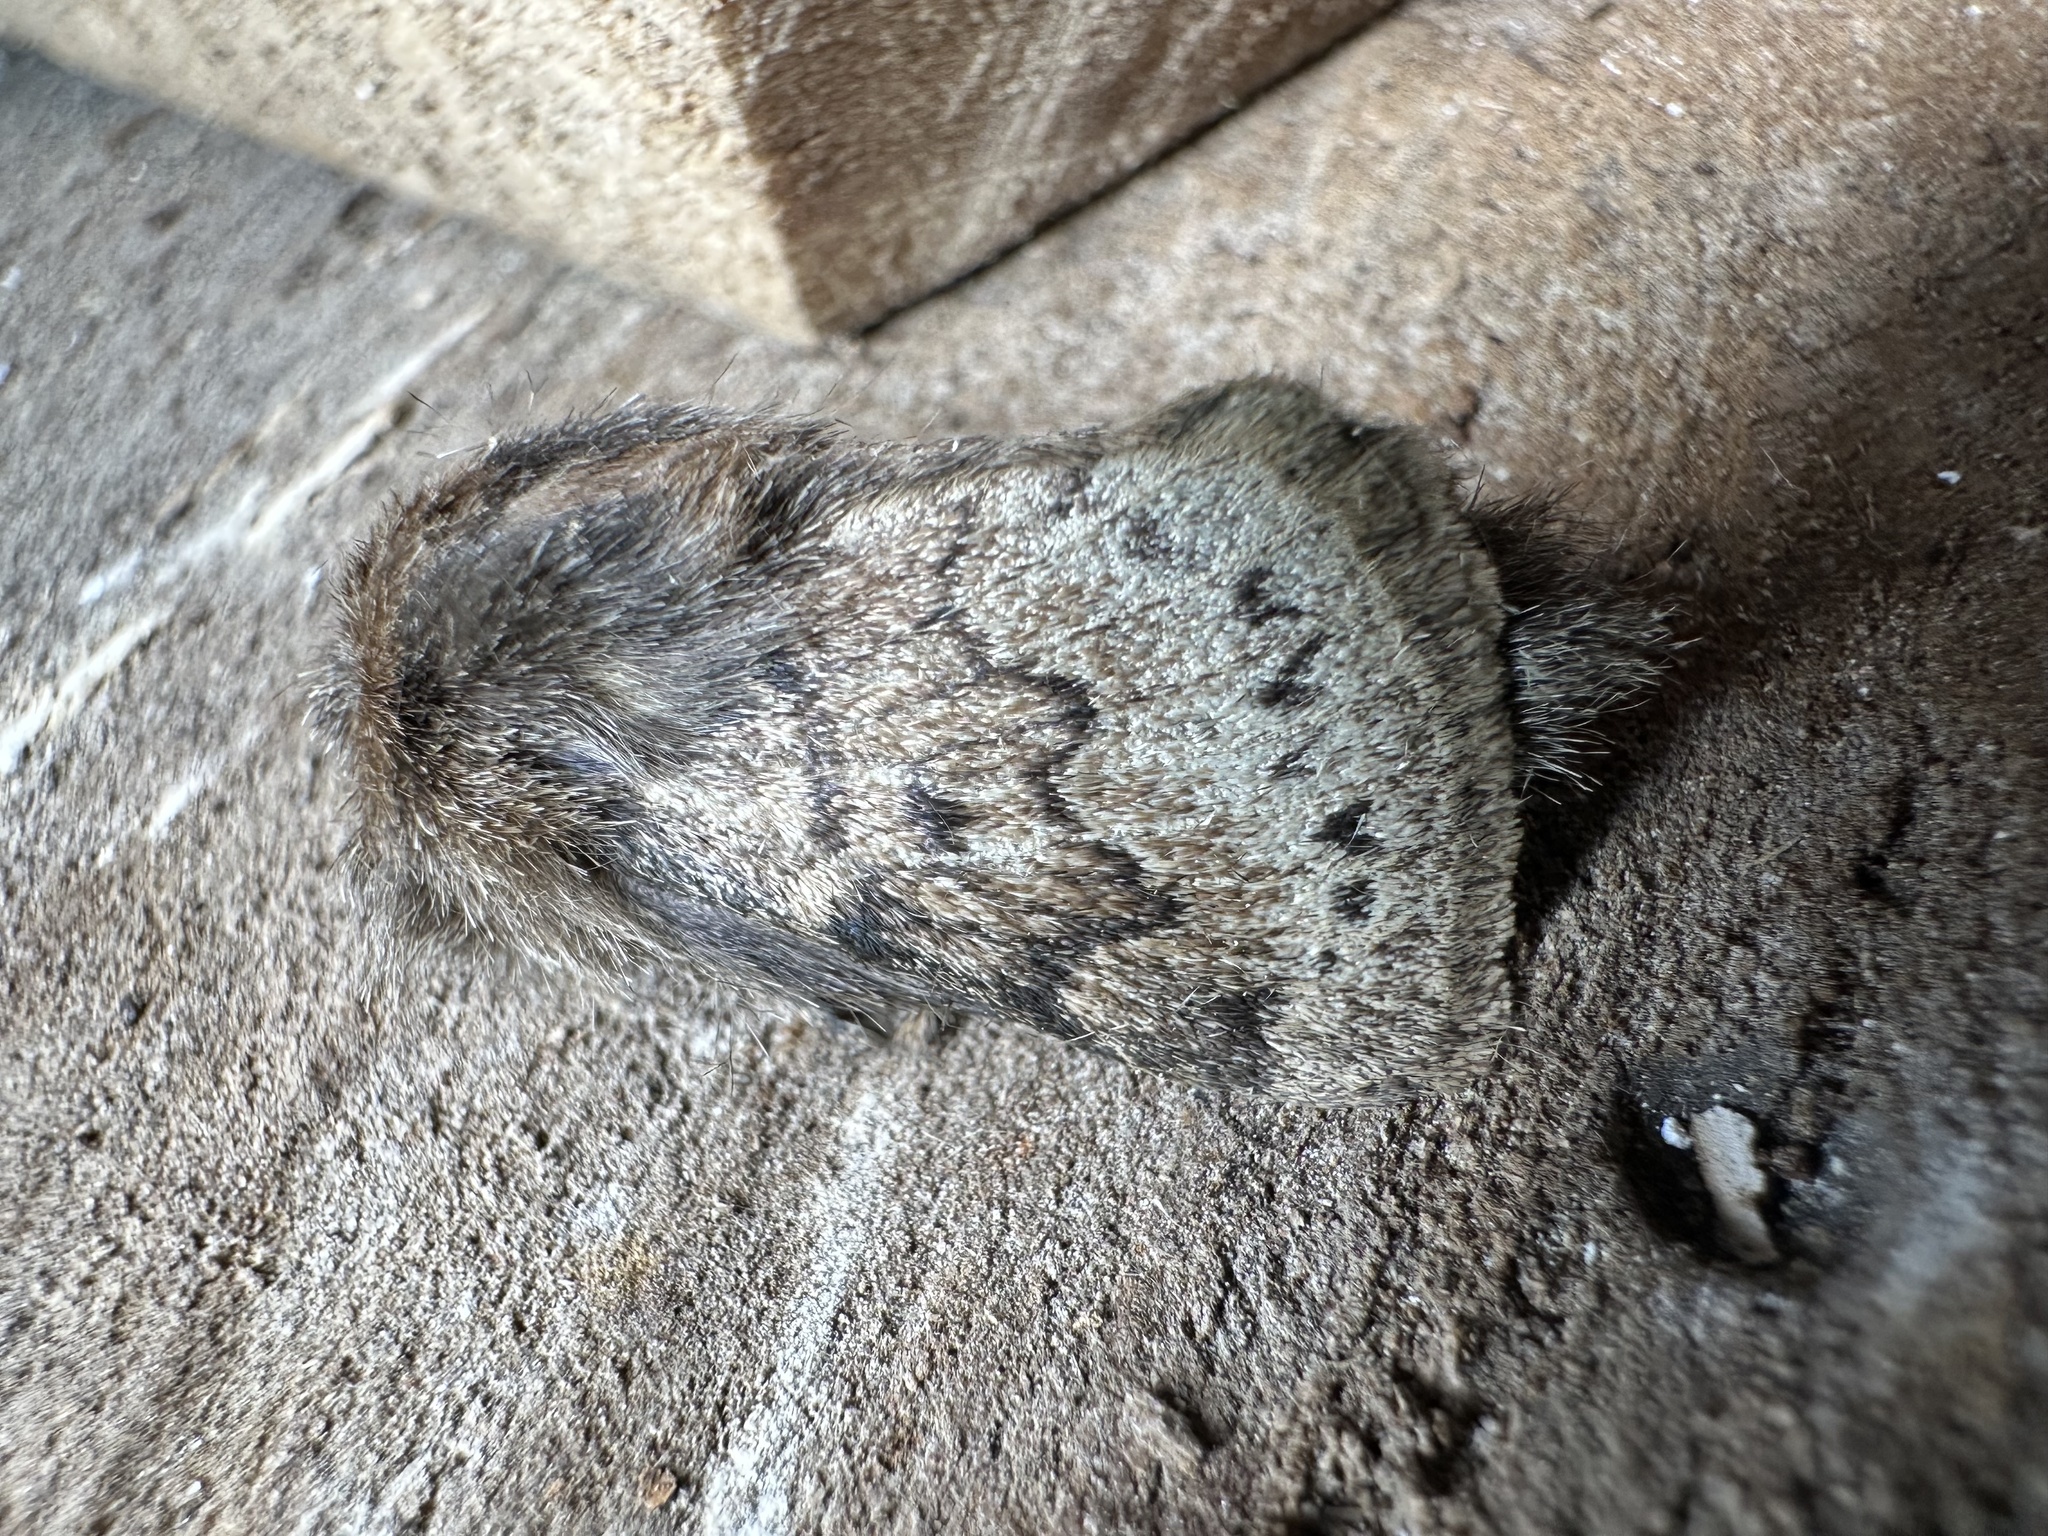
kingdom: Animalia
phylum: Arthropoda
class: Insecta
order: Lepidoptera
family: Lasiocampidae
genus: Macromphalia
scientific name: Macromphalia ancilla
